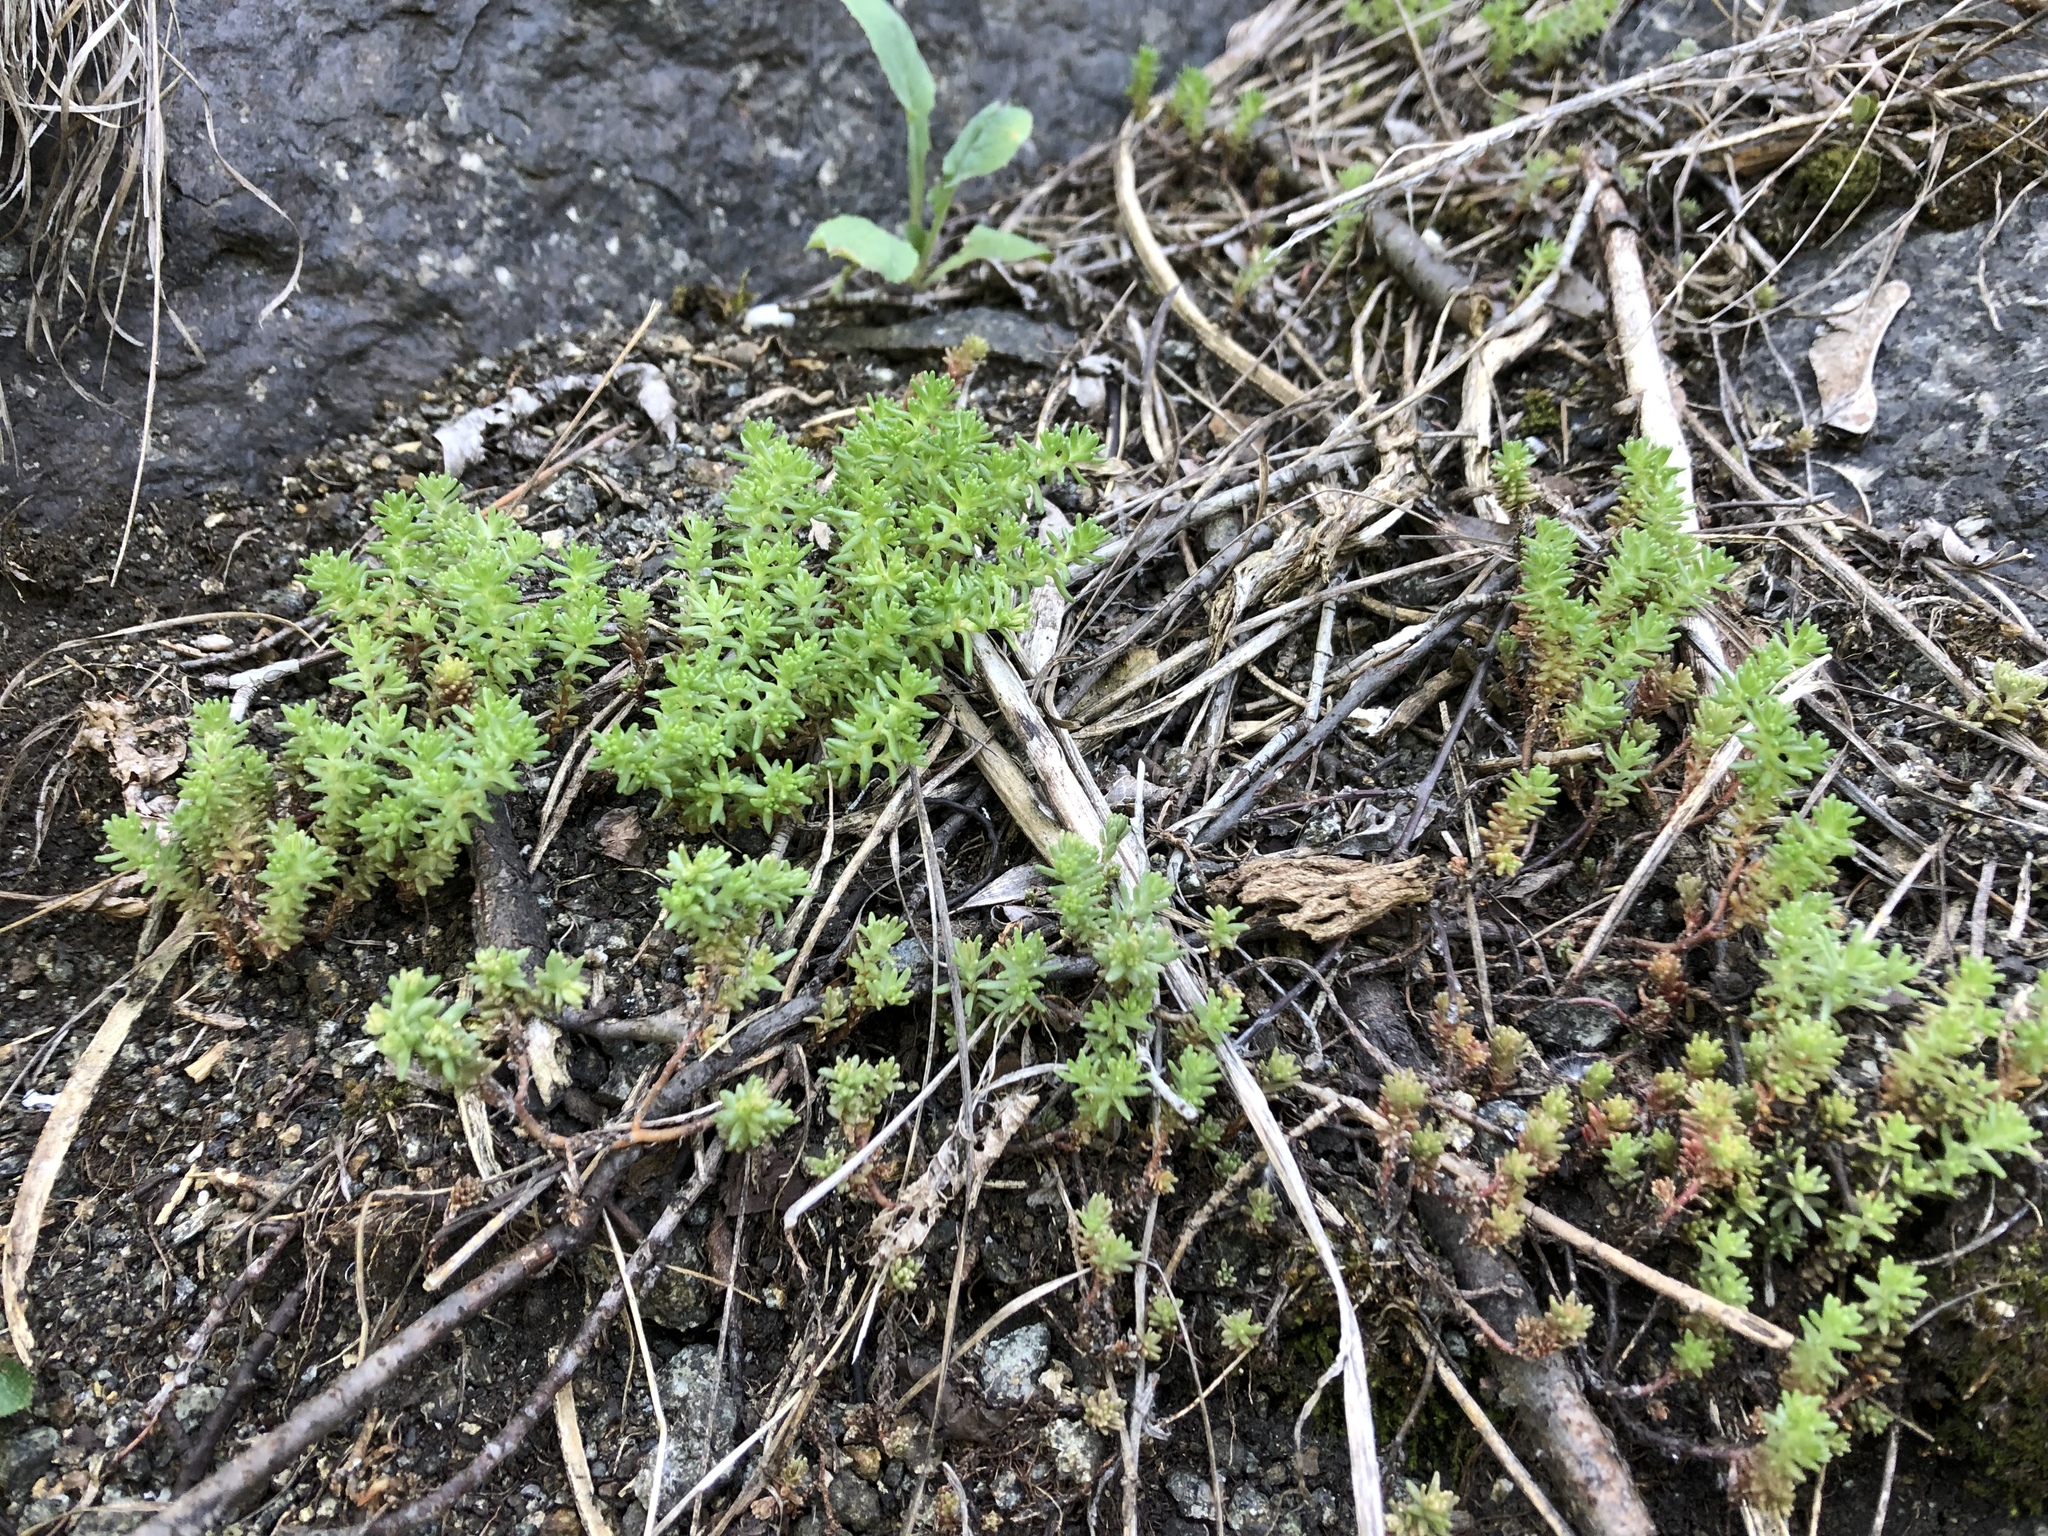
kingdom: Plantae
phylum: Tracheophyta
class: Magnoliopsida
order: Saxifragales
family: Crassulaceae
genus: Sedum
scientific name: Sedum sexangulare
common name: Tasteless stonecrop
